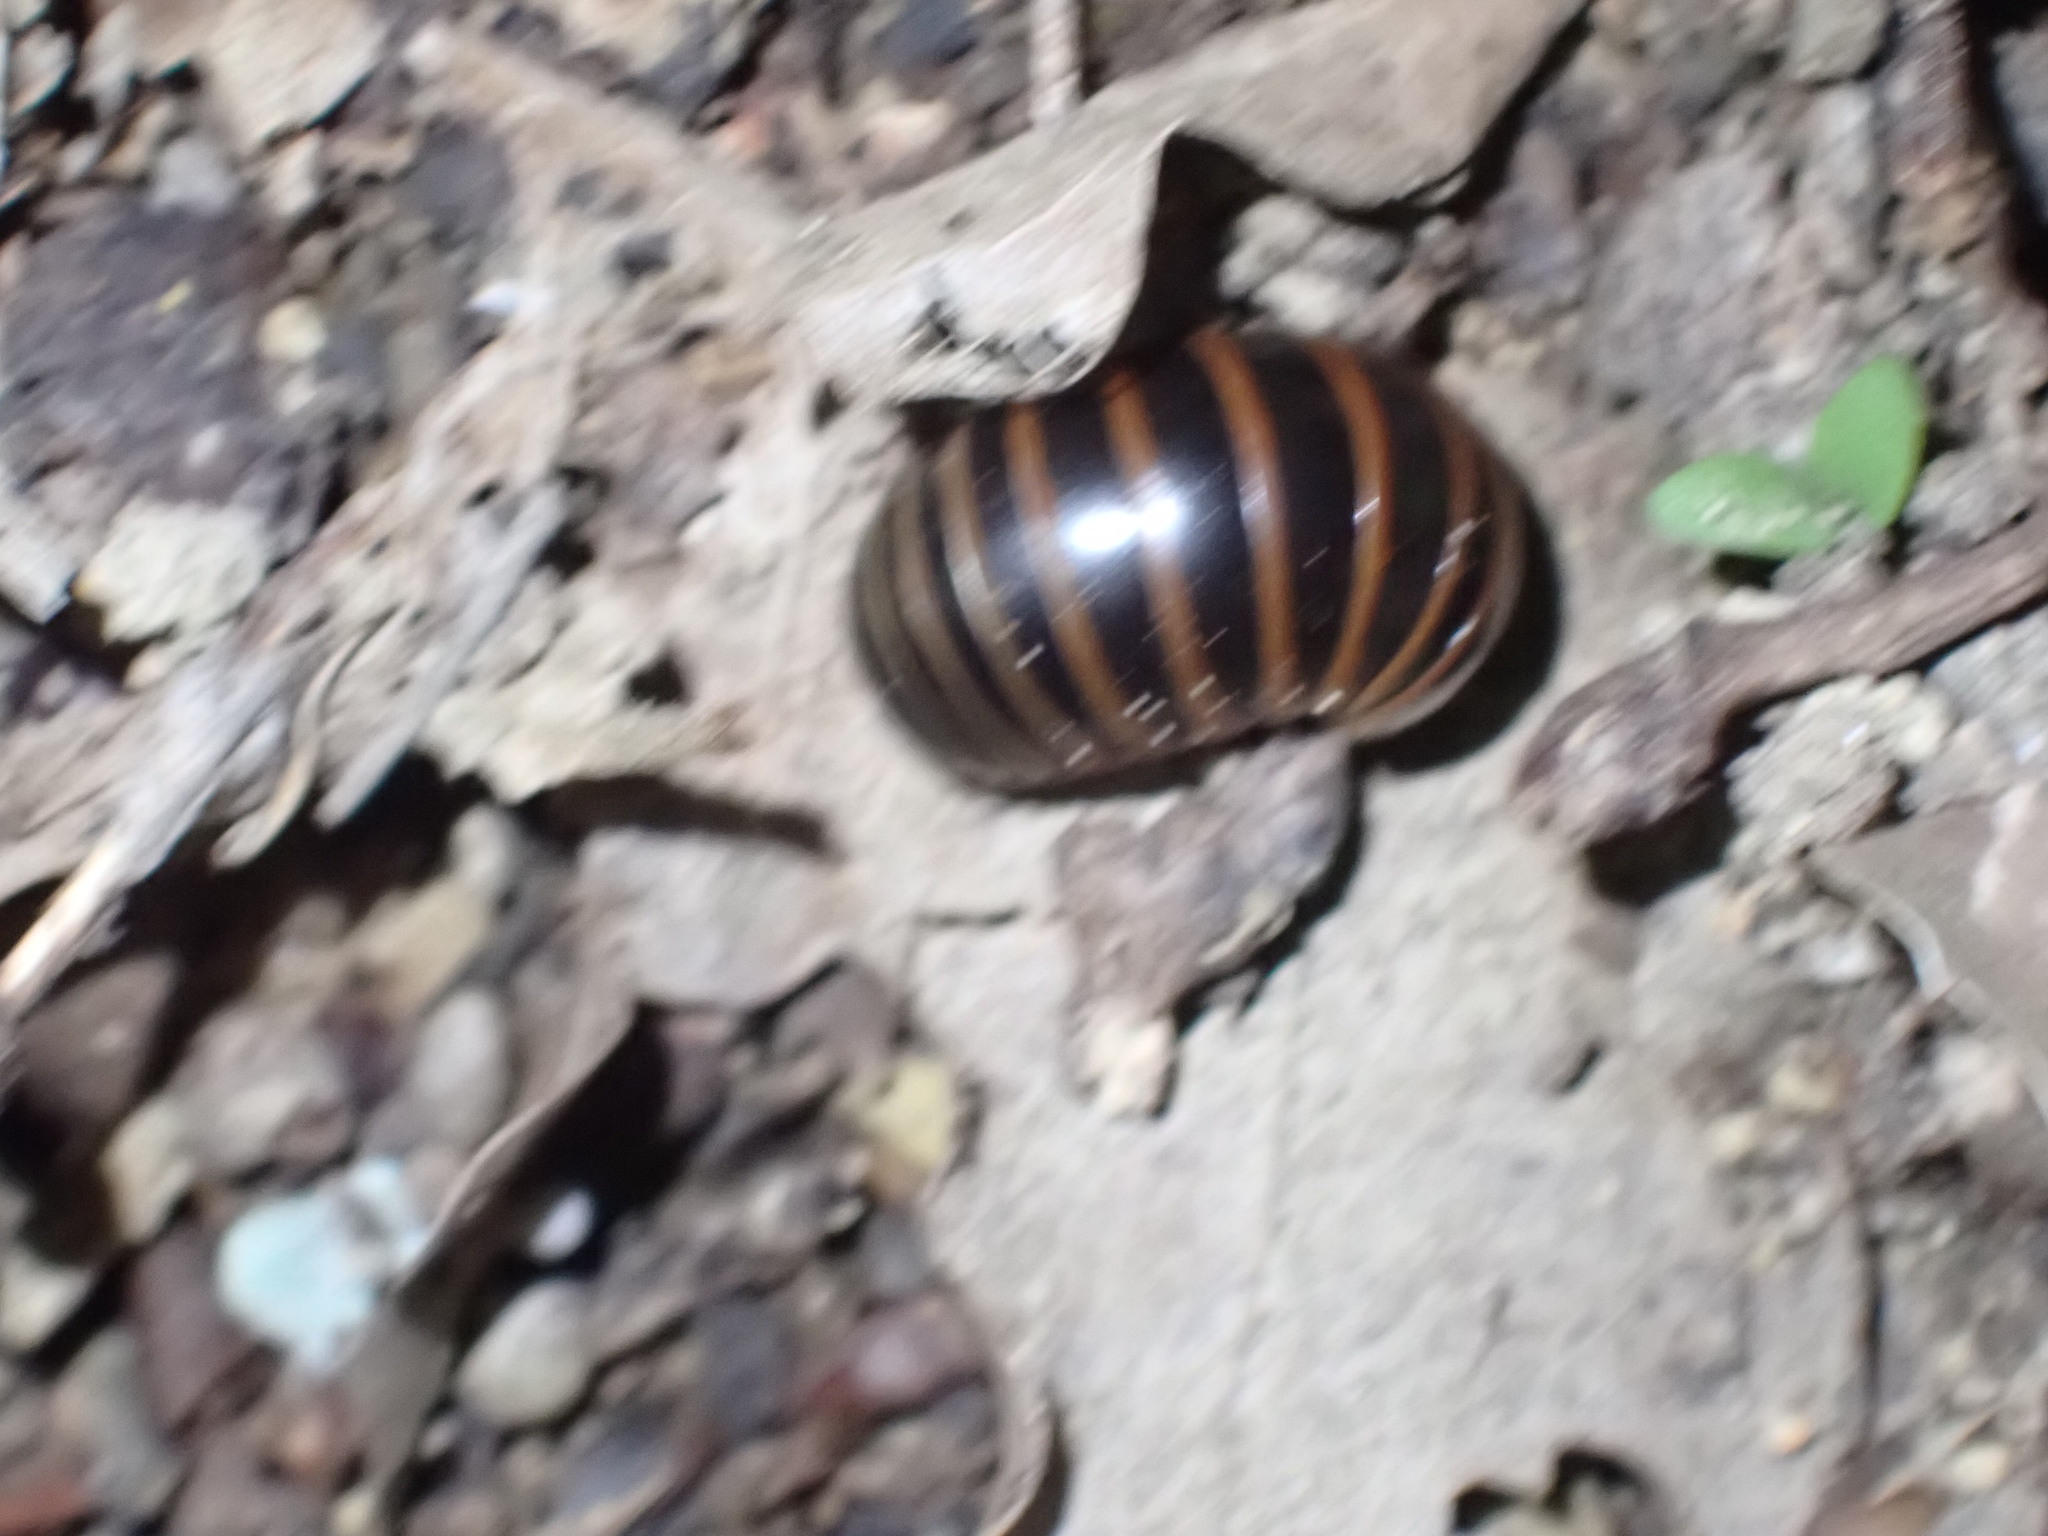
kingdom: Animalia
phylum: Arthropoda
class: Diplopoda
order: Glomerida
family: Glomeridae
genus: Glomeris
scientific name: Glomeris marginata
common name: Bordered pill millipede
